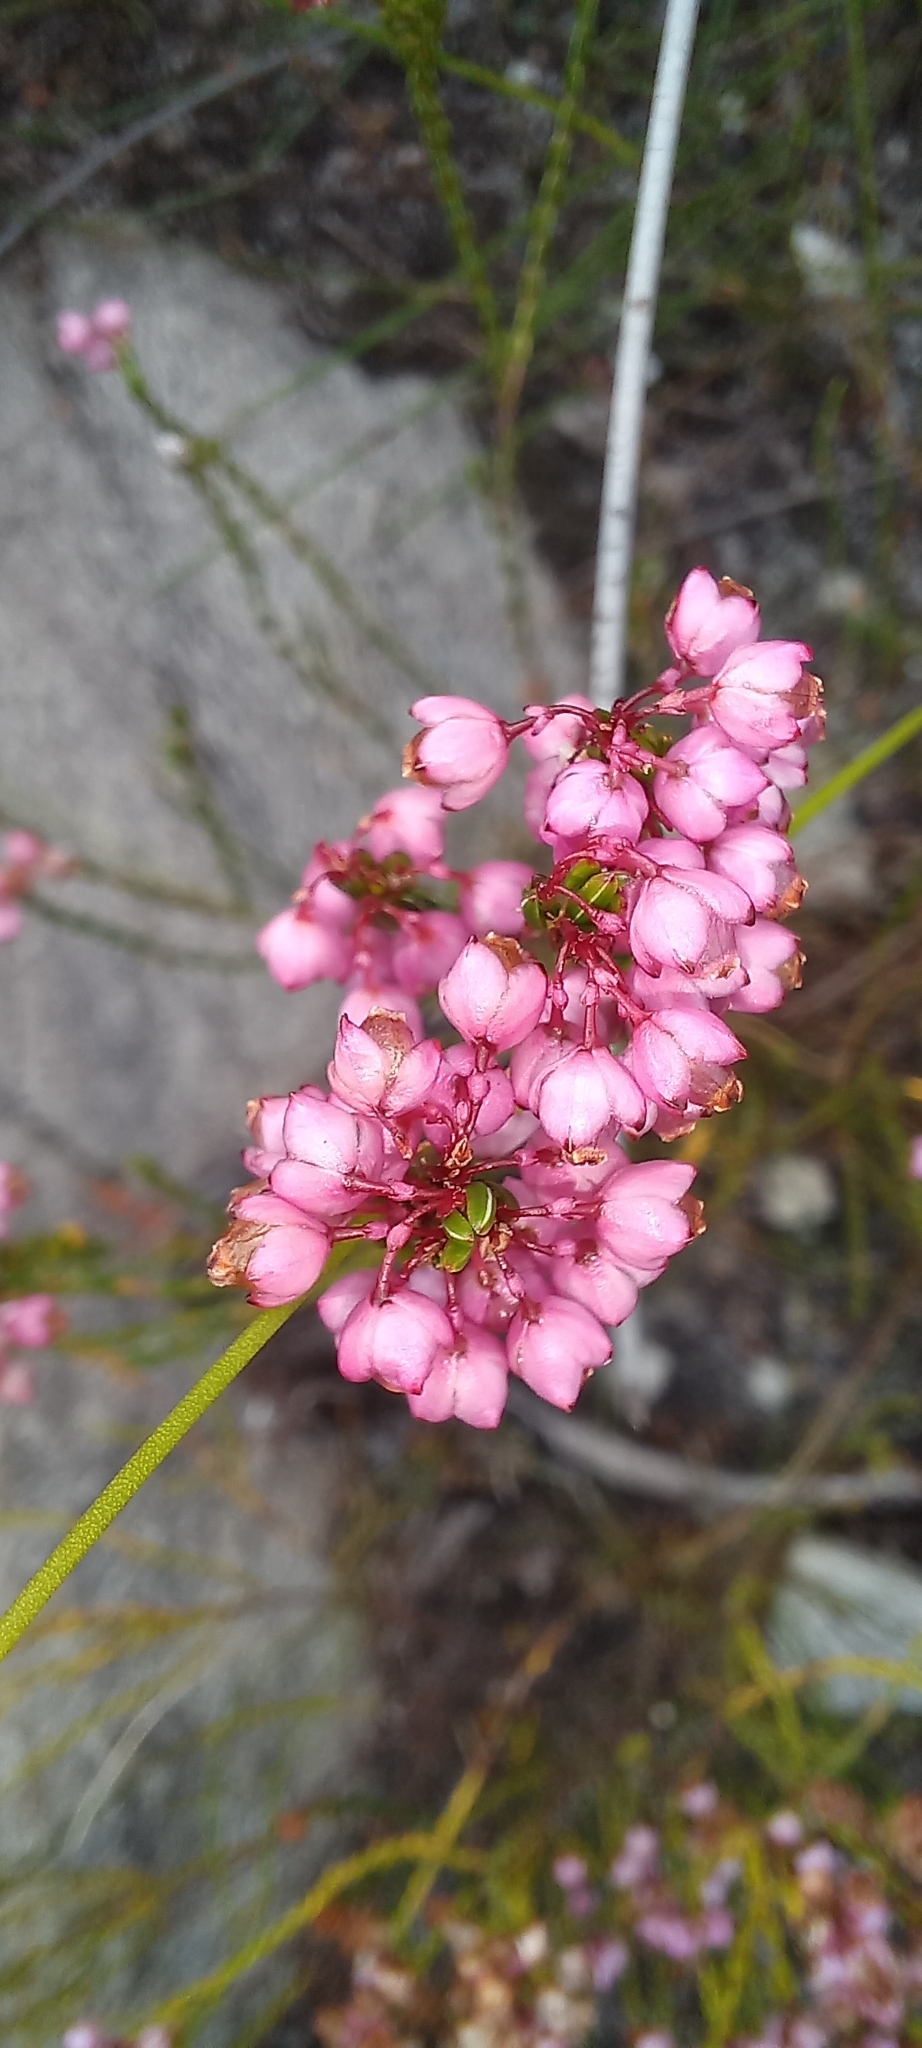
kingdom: Plantae
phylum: Tracheophyta
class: Magnoliopsida
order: Ericales
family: Ericaceae
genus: Erica
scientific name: Erica rhopalantha
